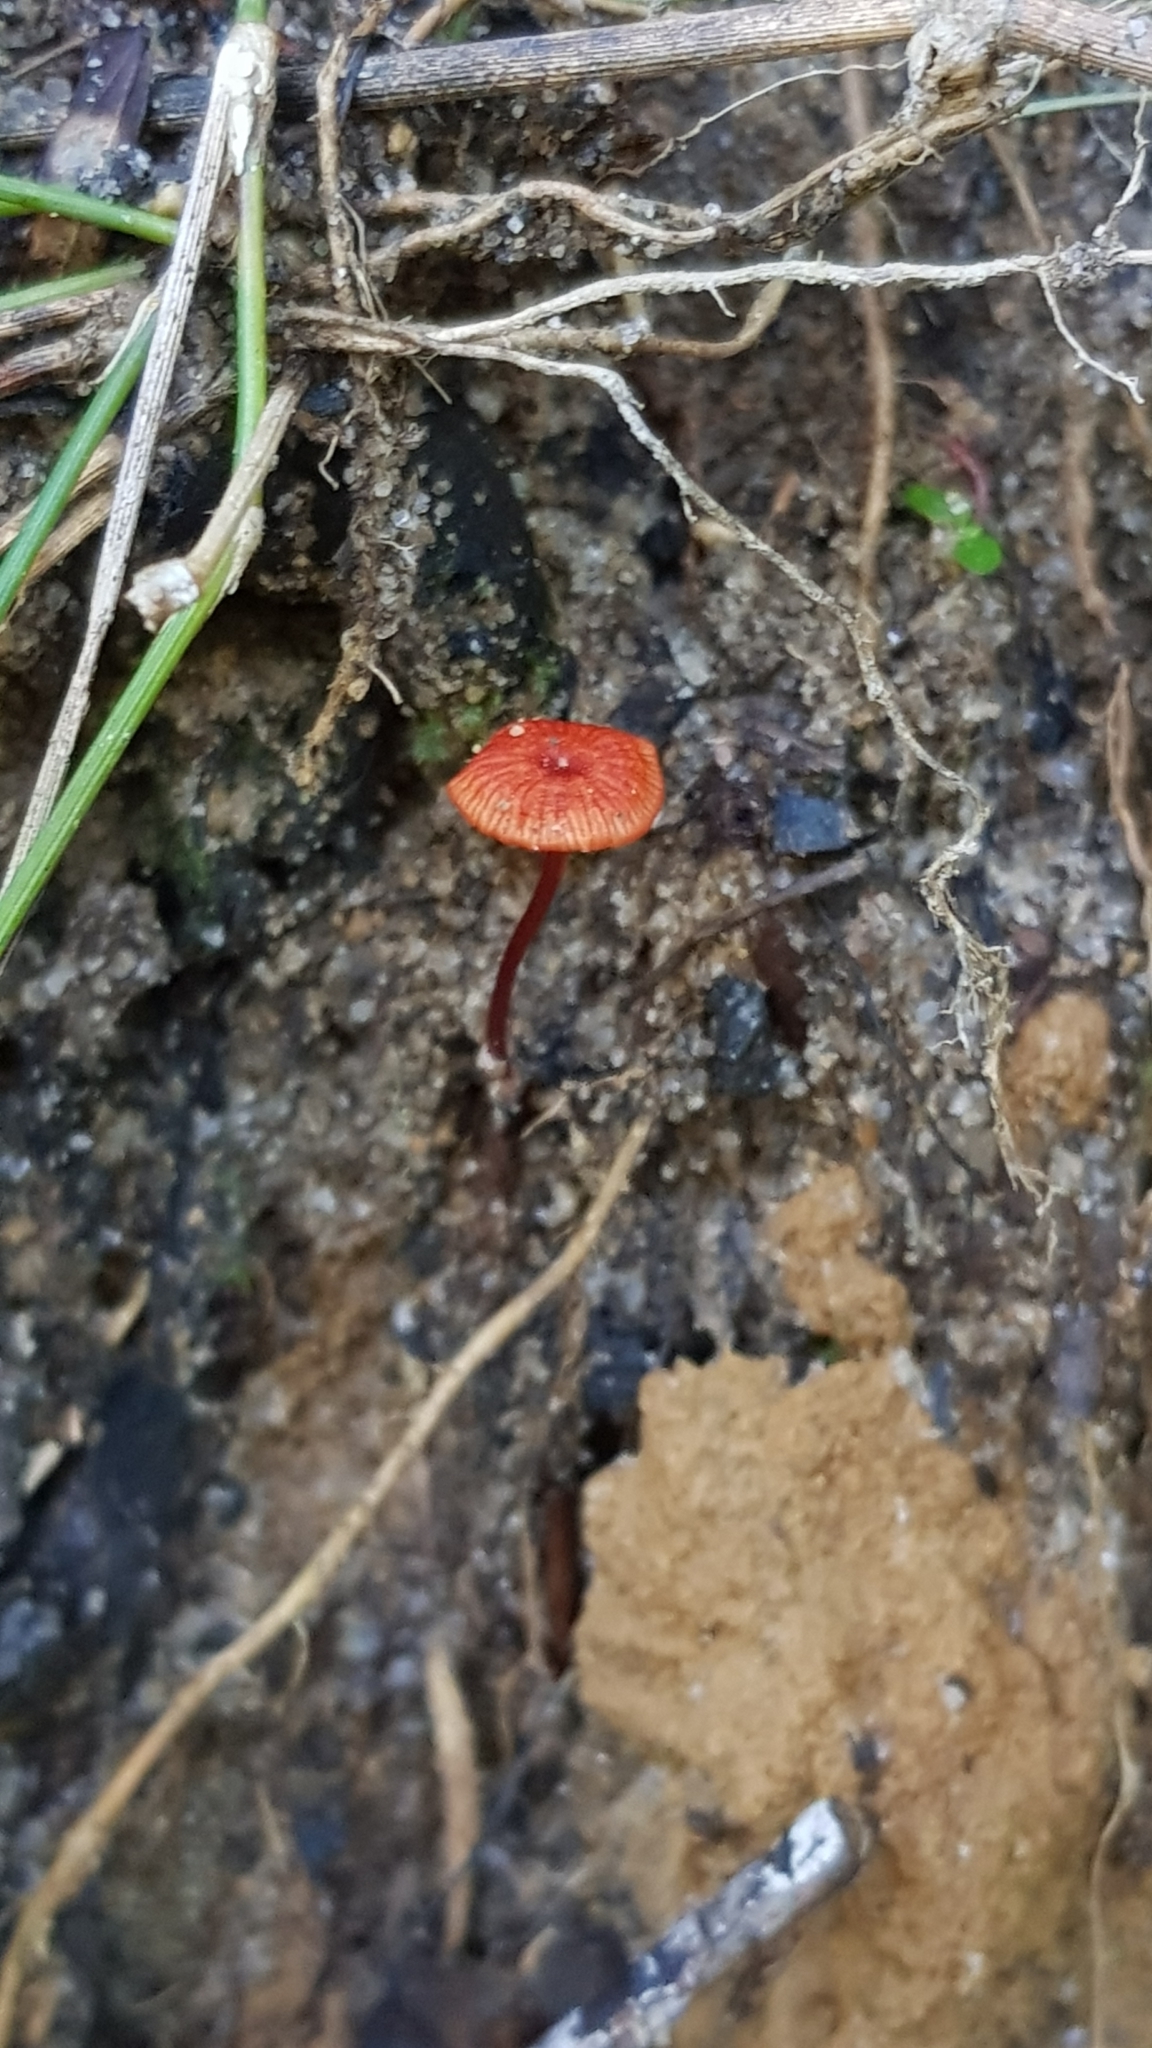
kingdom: Fungi
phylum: Basidiomycota
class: Agaricomycetes
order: Agaricales
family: Mycenaceae
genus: Cruentomycena
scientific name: Cruentomycena viscidocruenta
